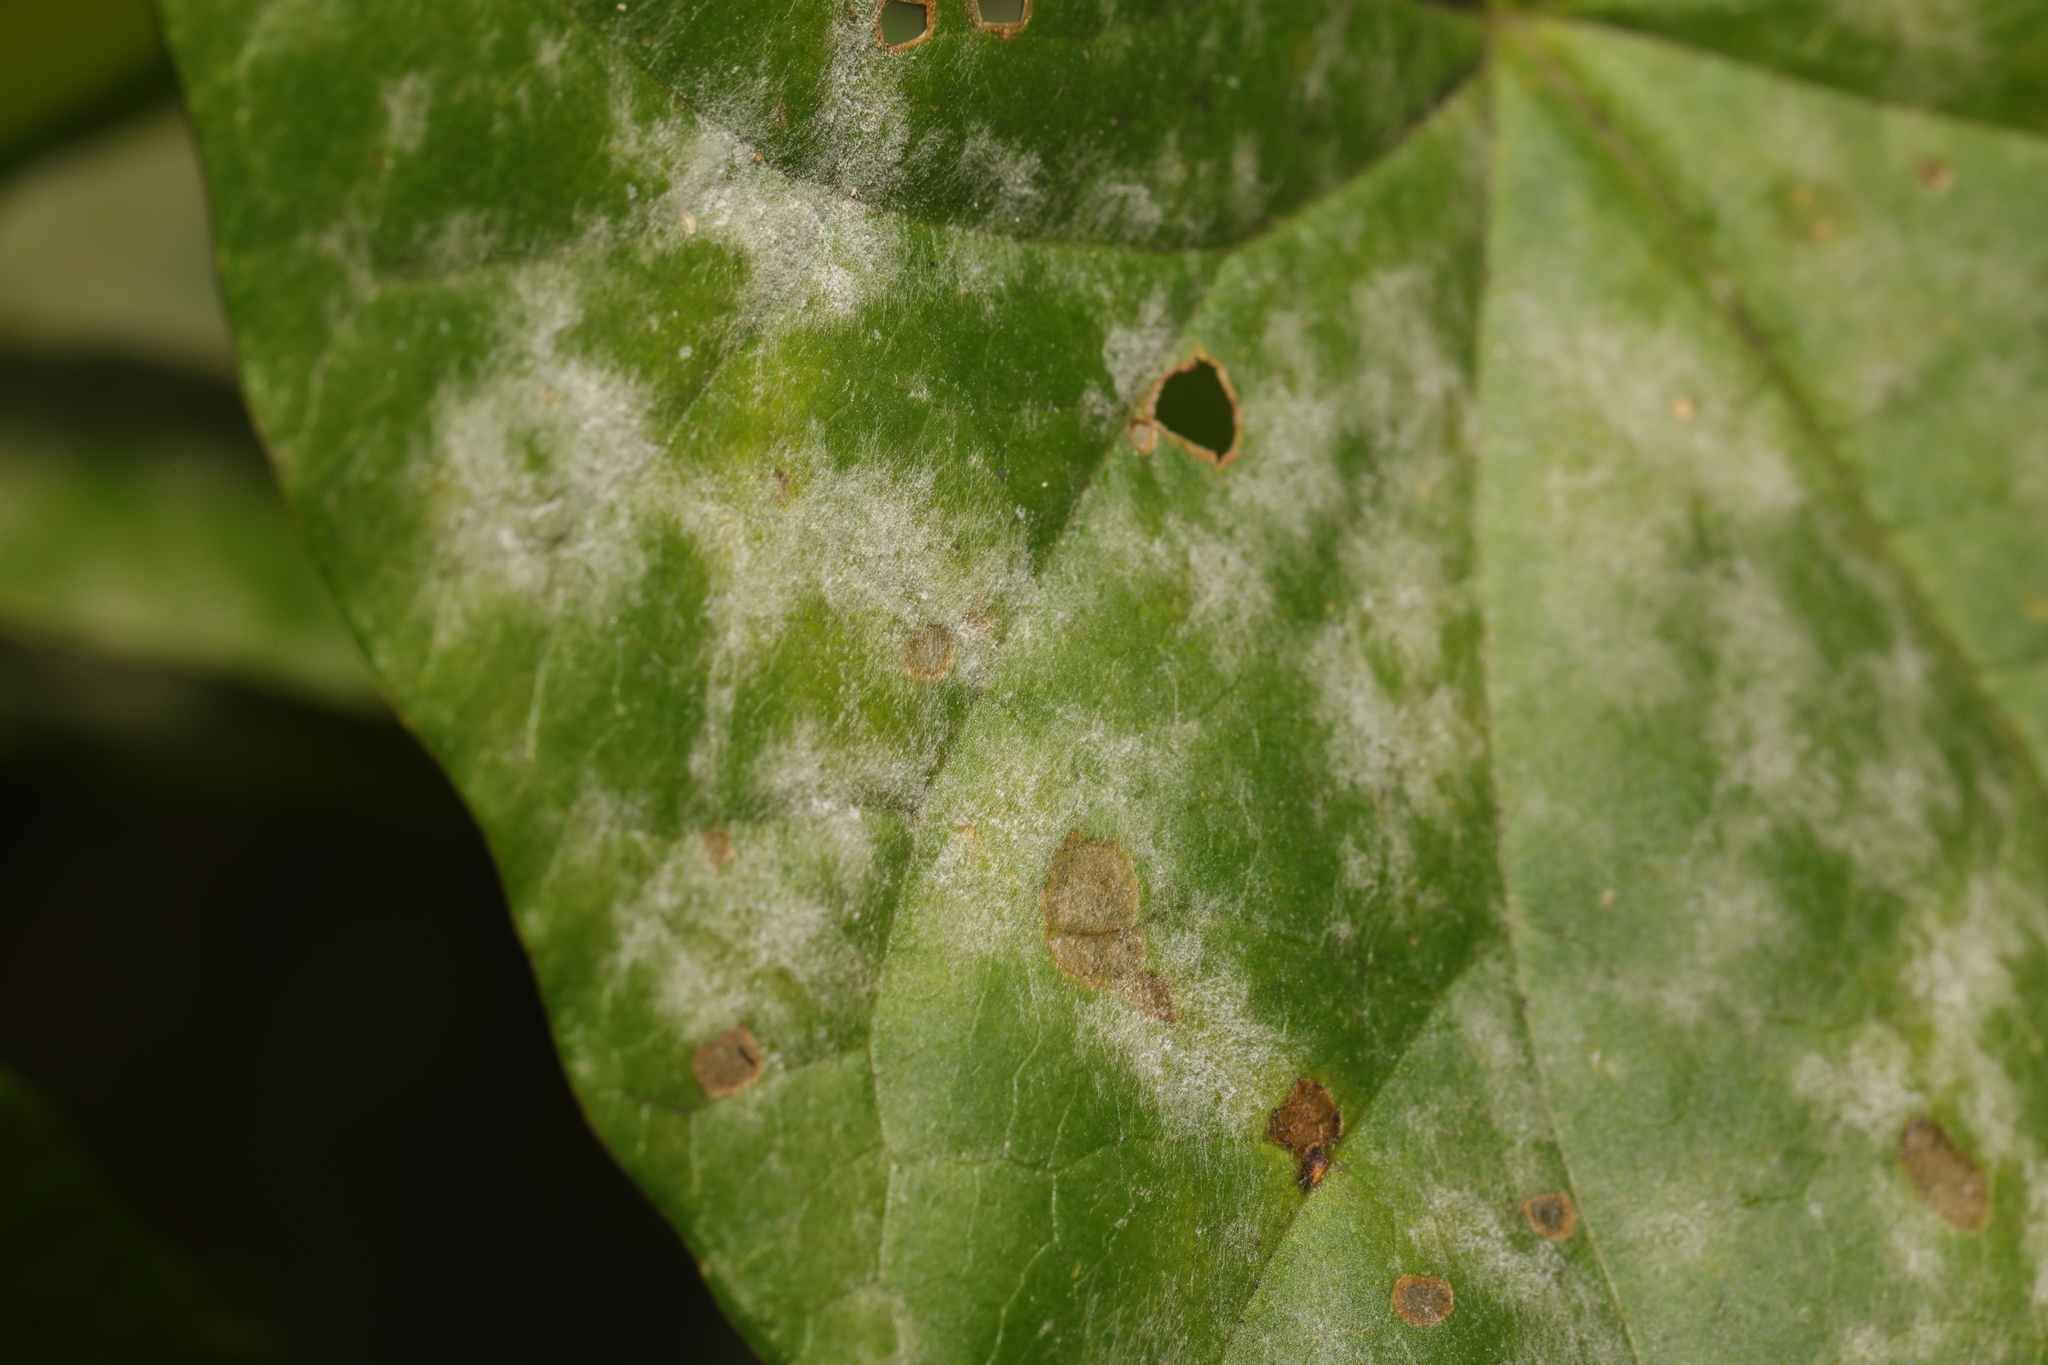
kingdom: Fungi
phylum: Ascomycota
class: Leotiomycetes
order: Helotiales
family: Erysiphaceae
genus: Erysiphe
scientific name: Erysiphe convolvuli
